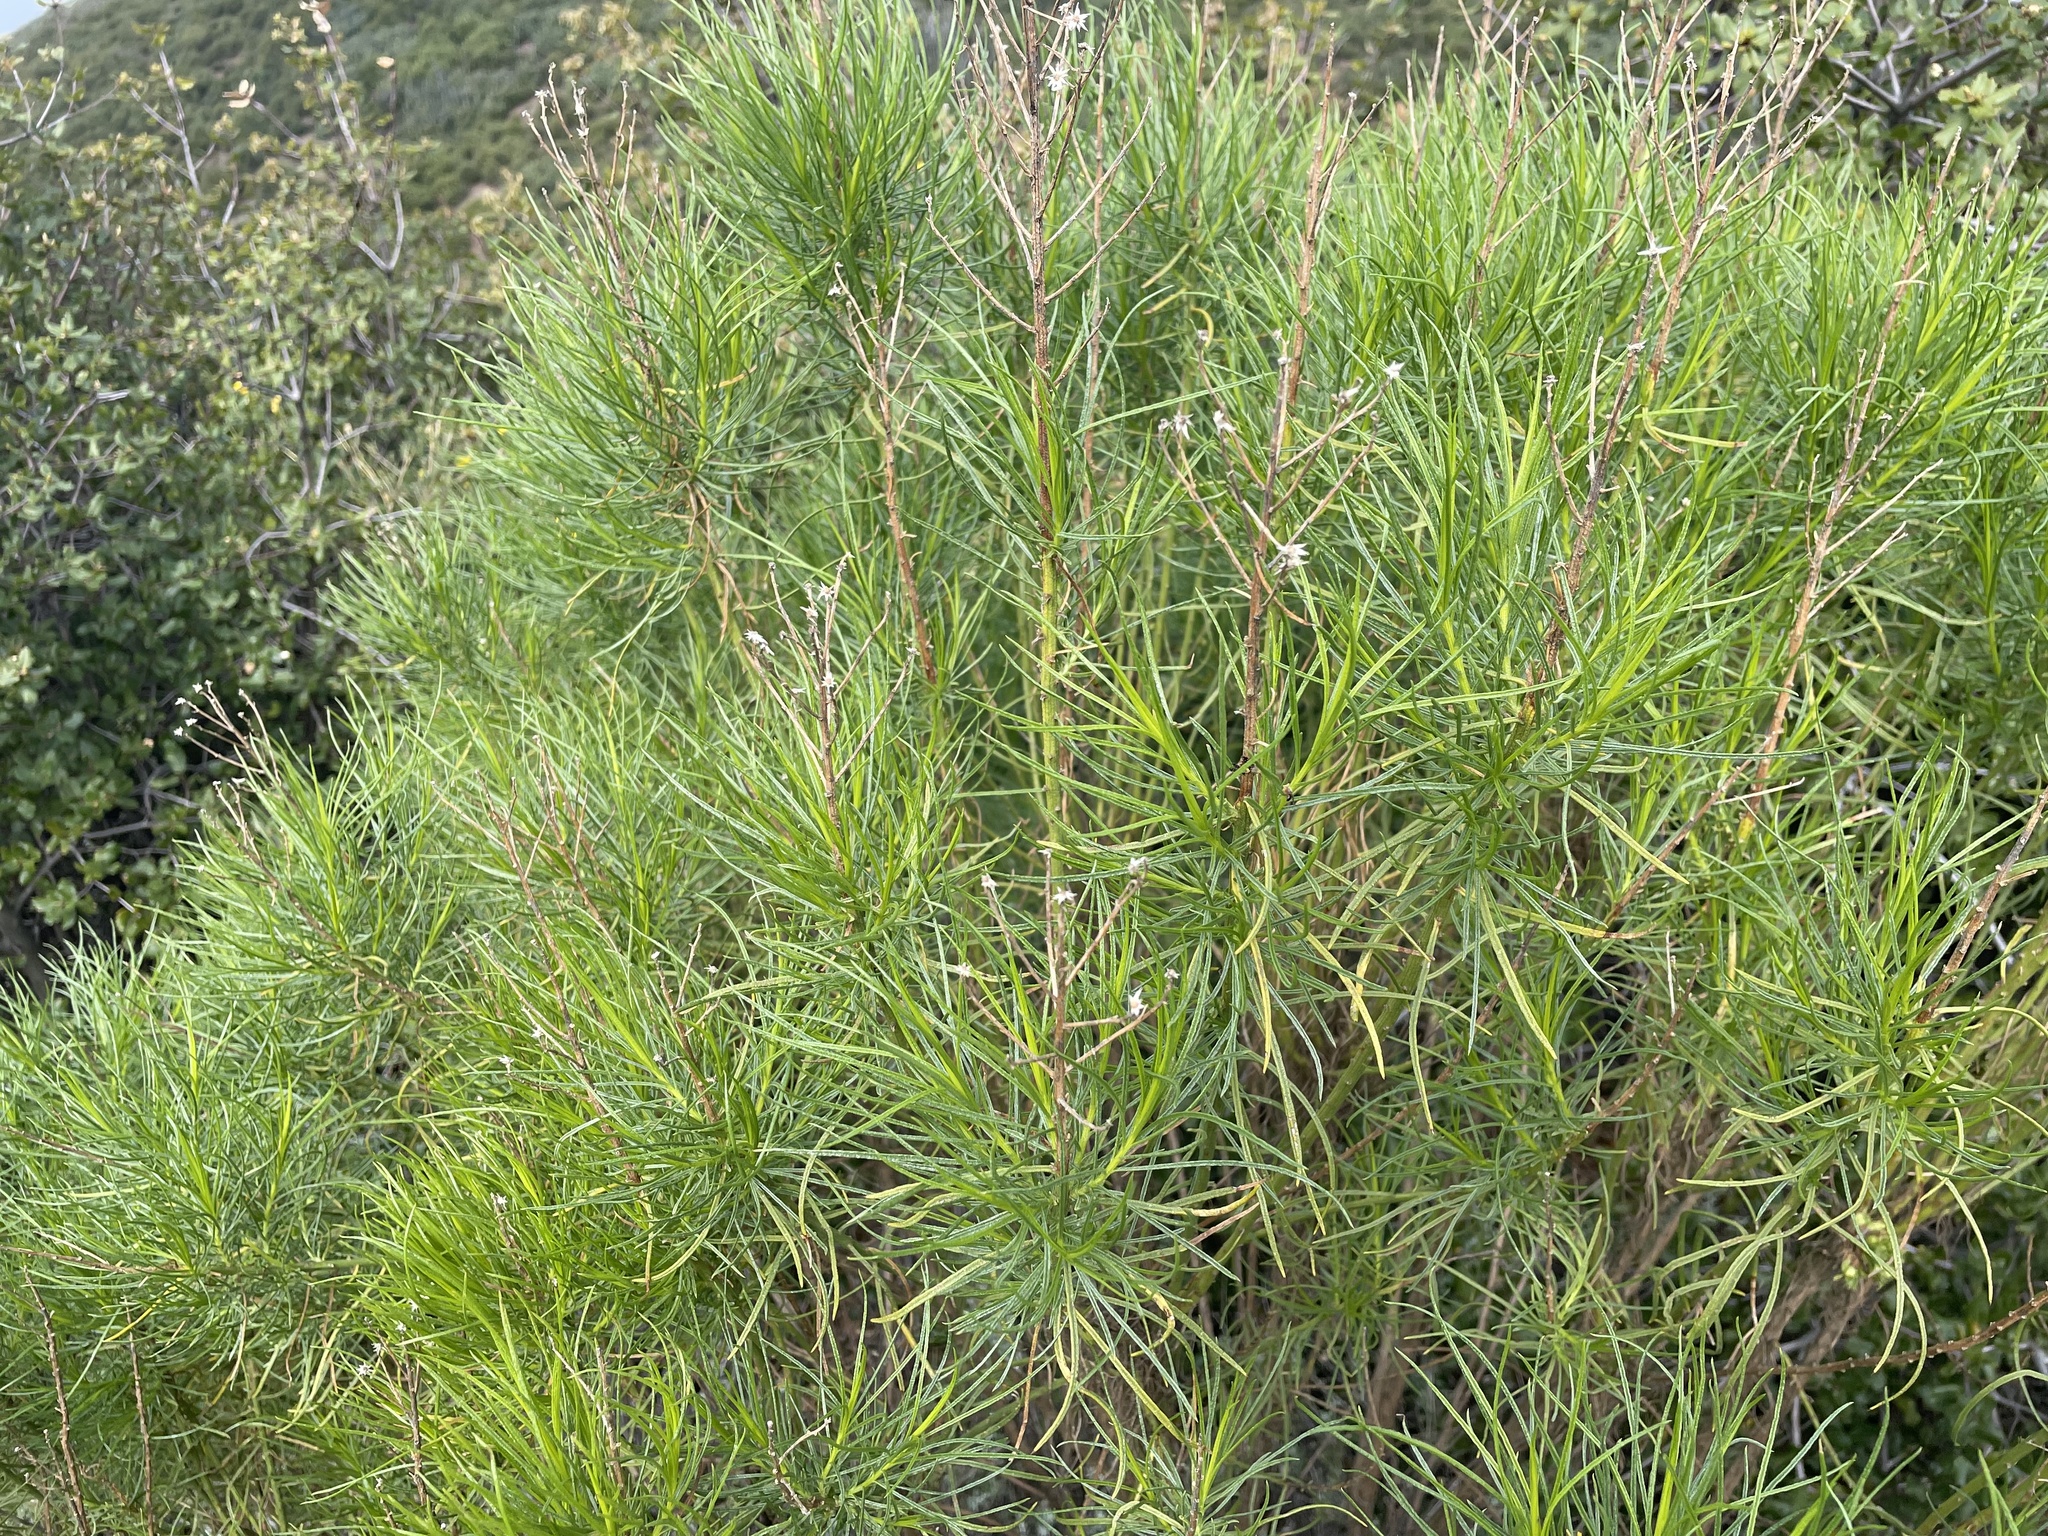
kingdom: Plantae
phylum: Tracheophyta
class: Magnoliopsida
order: Asterales
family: Asteraceae
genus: Ericameria
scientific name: Ericameria arborescens
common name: Goldenfleece
